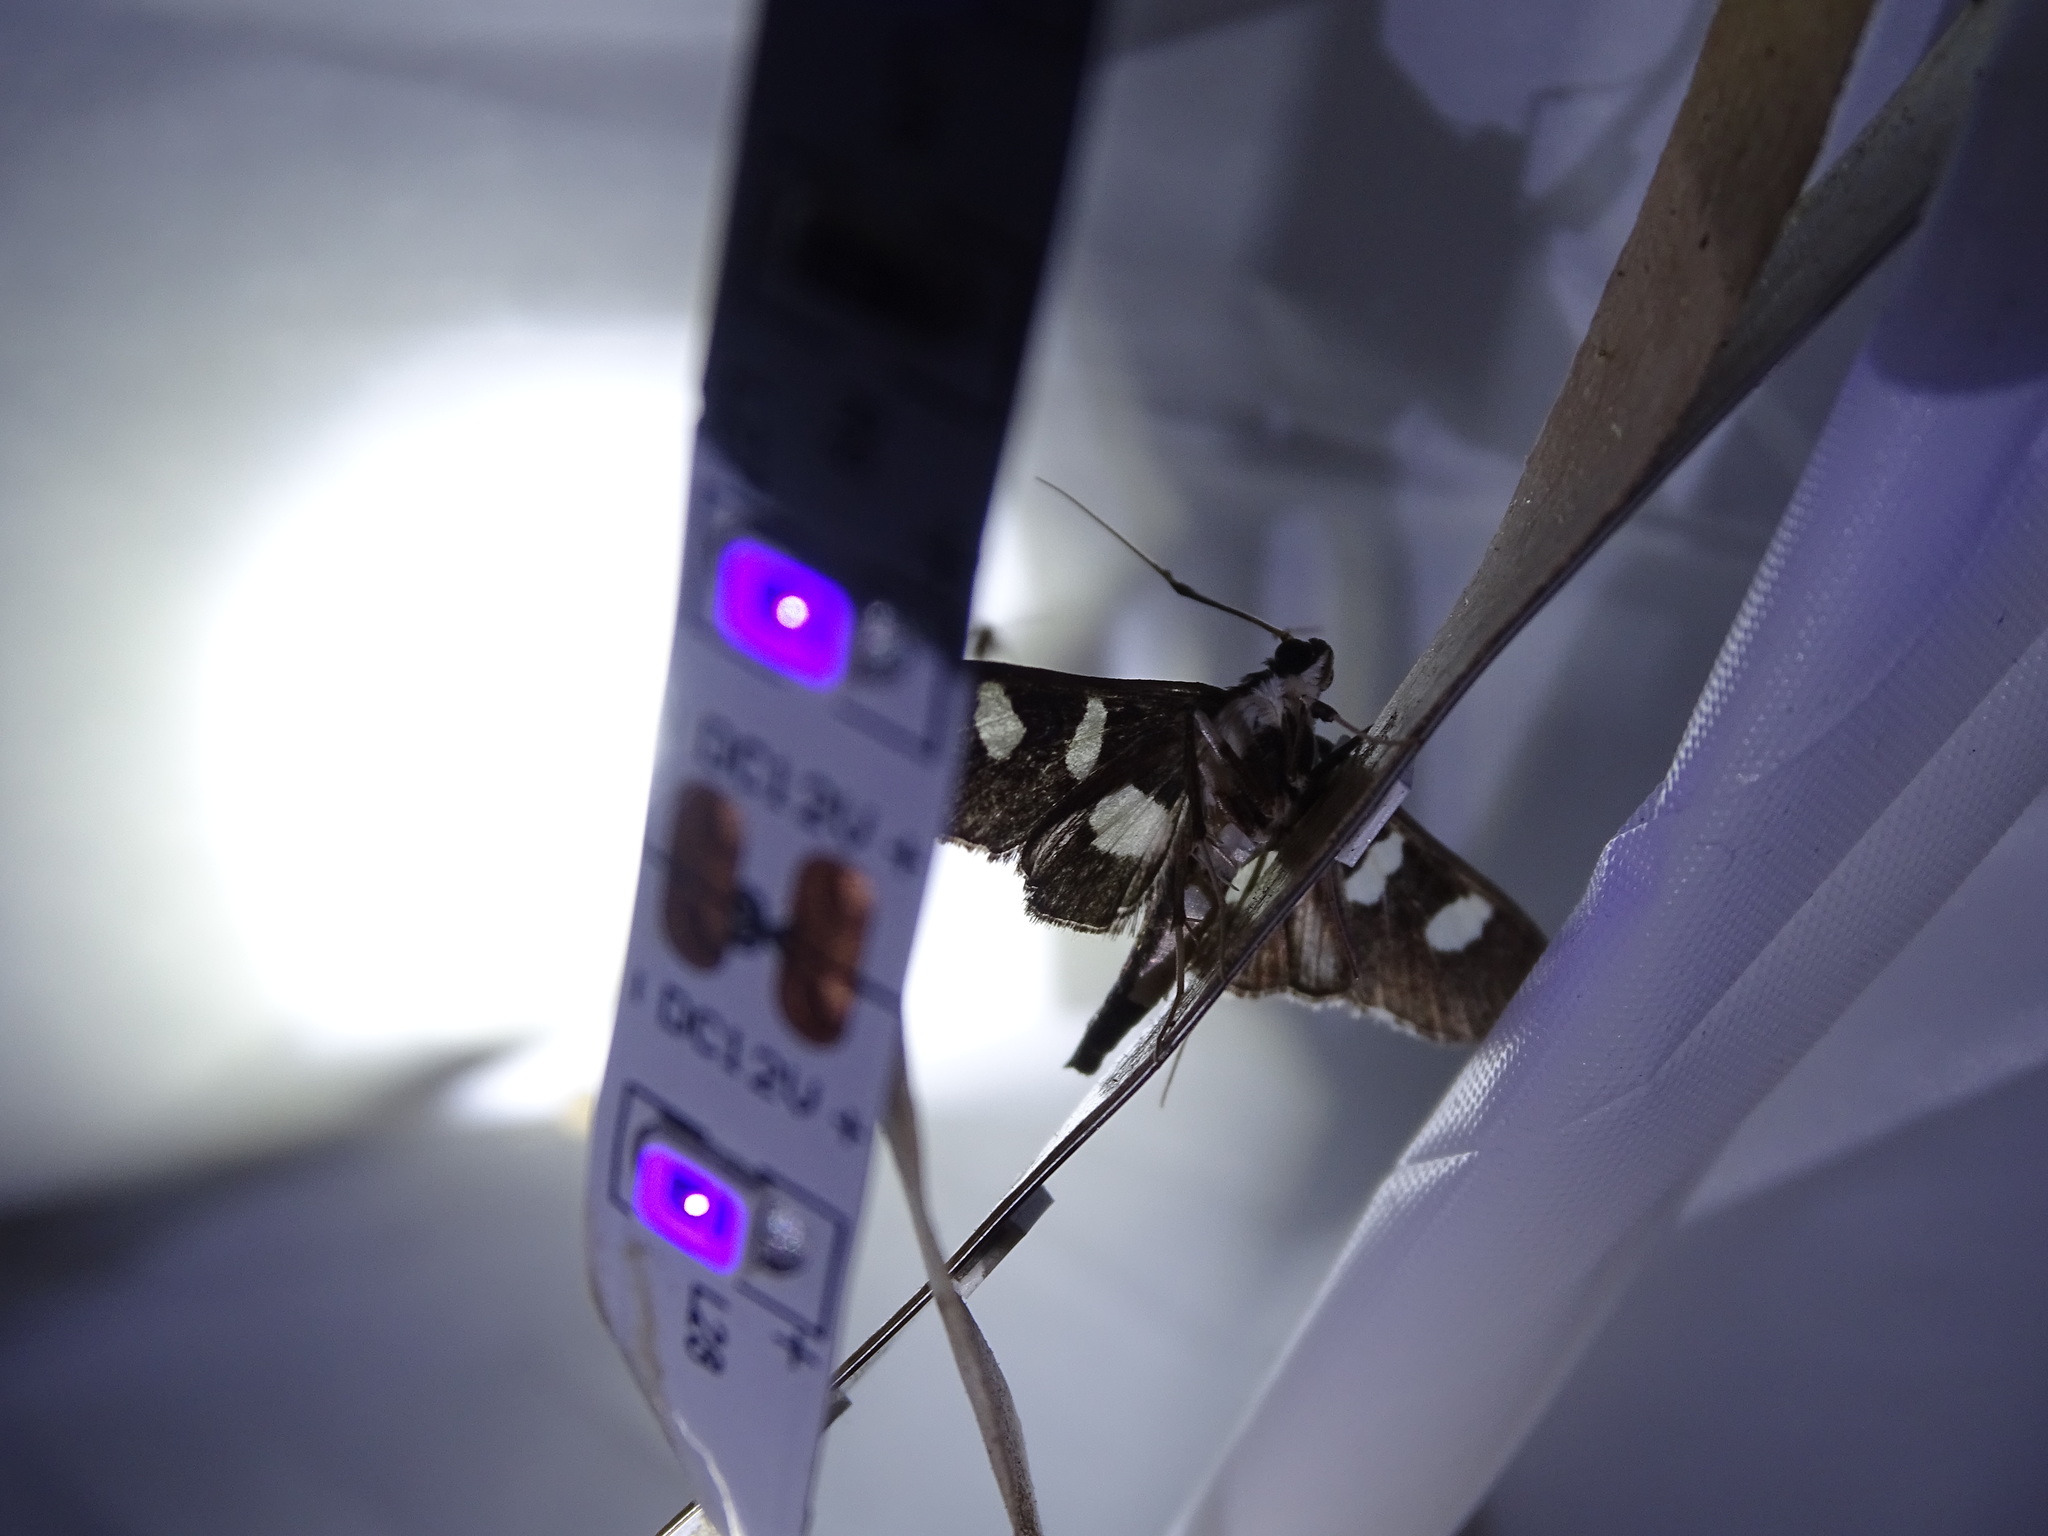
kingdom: Animalia
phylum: Arthropoda
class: Insecta
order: Lepidoptera
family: Crambidae
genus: Desmia
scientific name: Desmia funeralis
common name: Grape leaf folder moth
